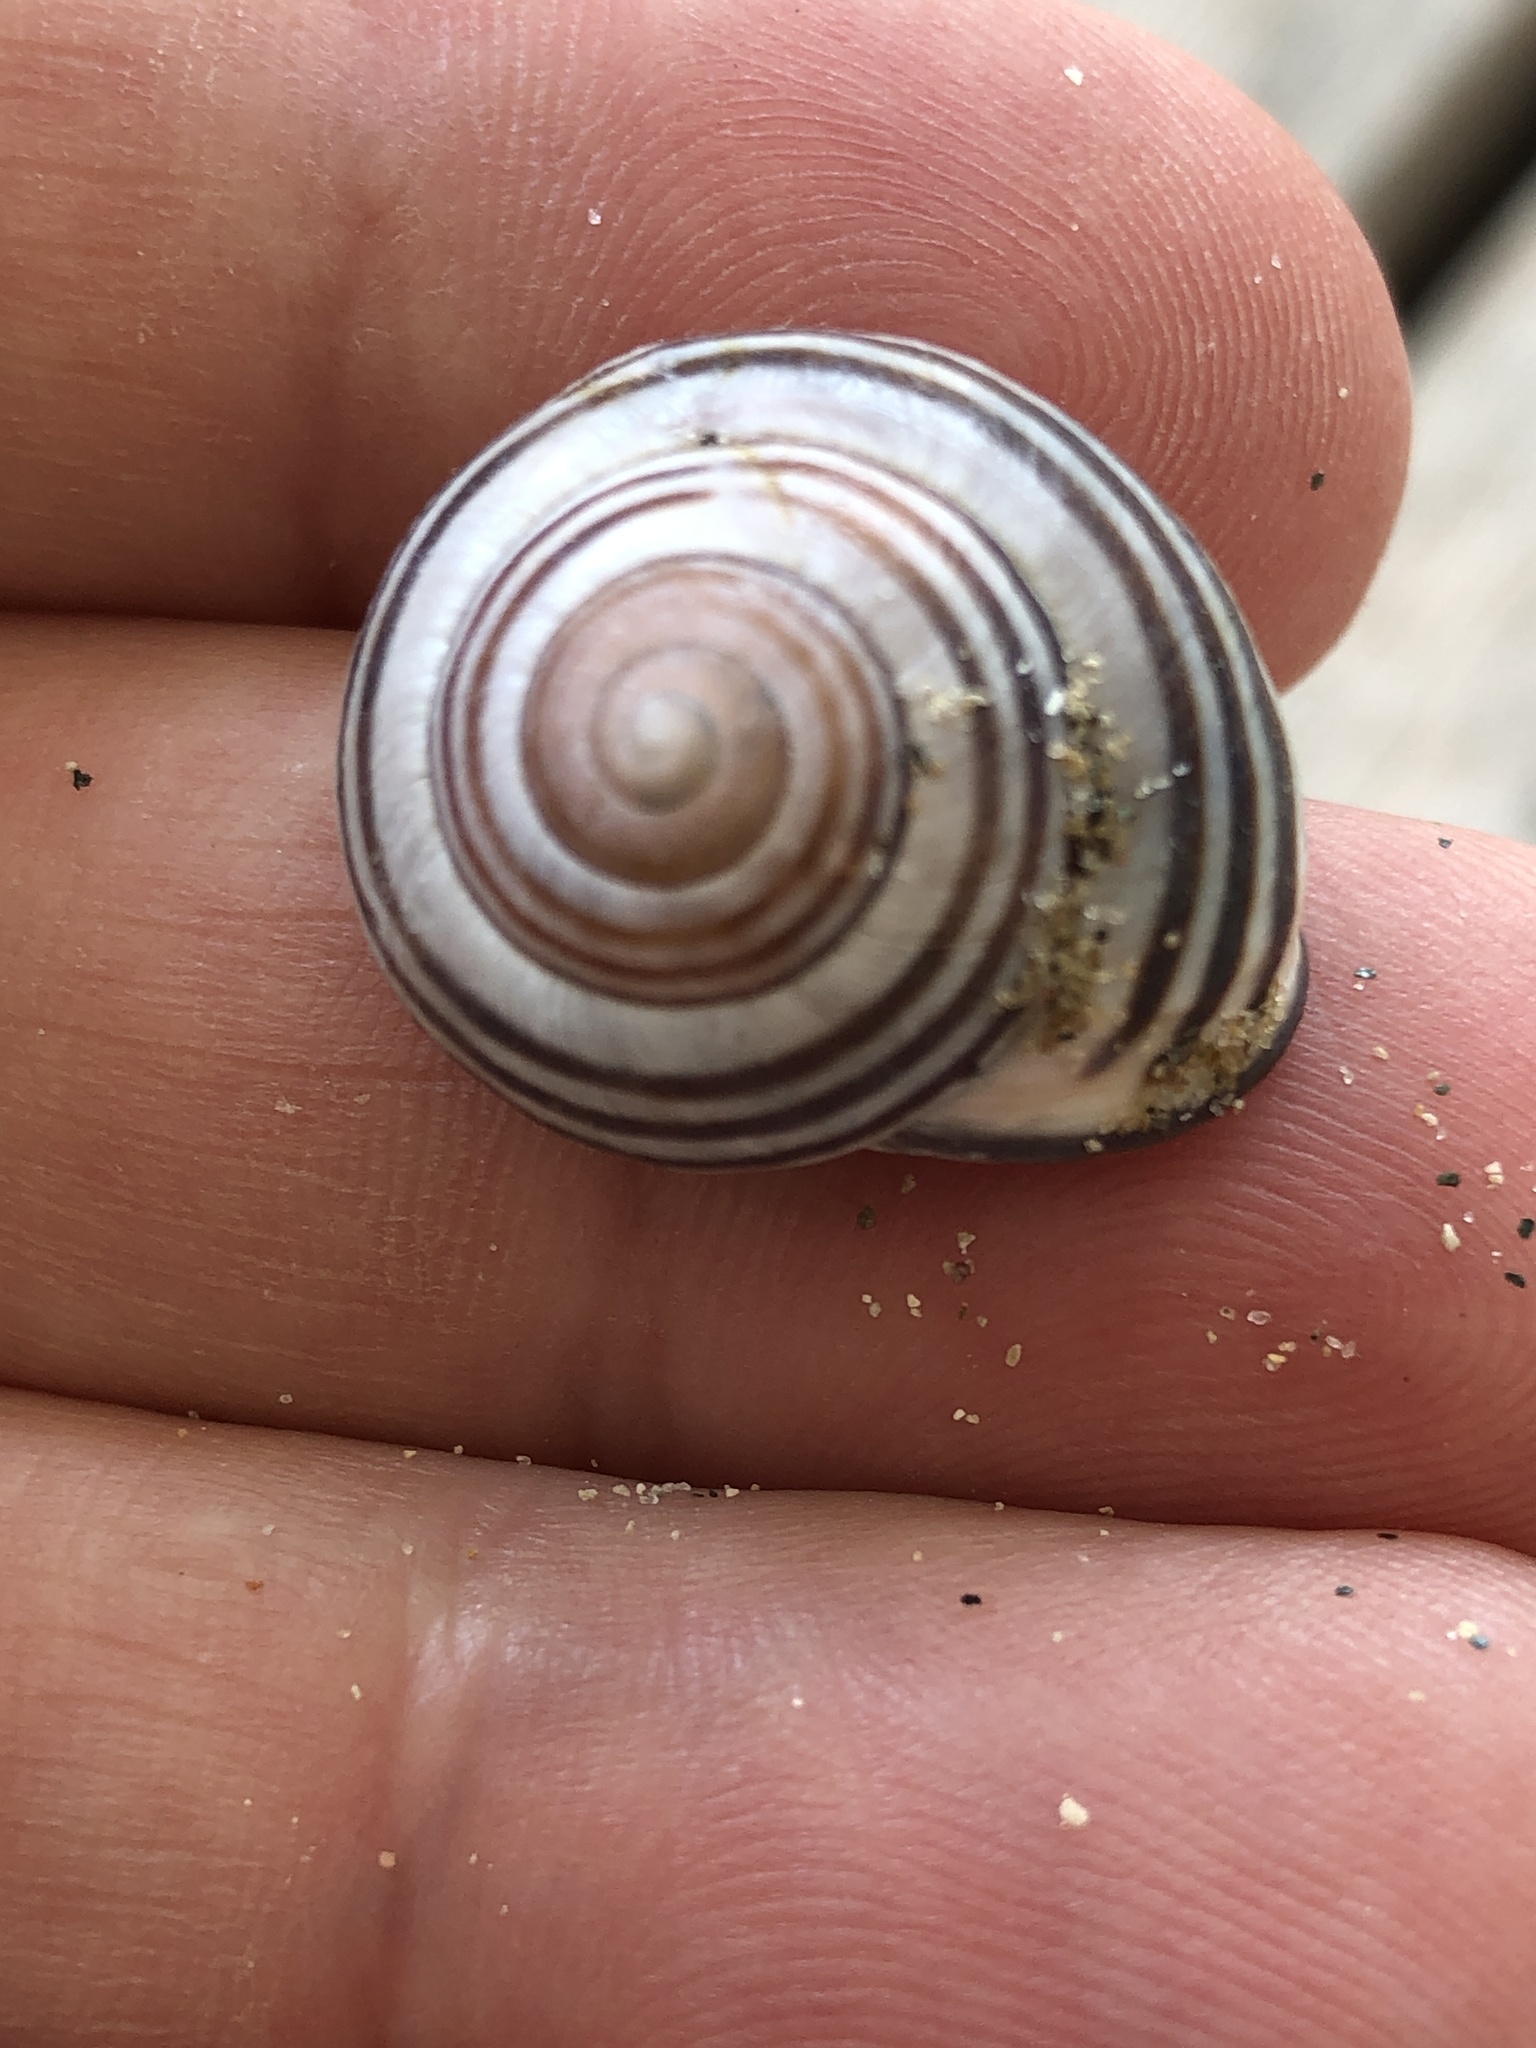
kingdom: Animalia
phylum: Mollusca
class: Gastropoda
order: Stylommatophora
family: Helicidae
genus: Cepaea
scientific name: Cepaea nemoralis
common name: Grovesnail
